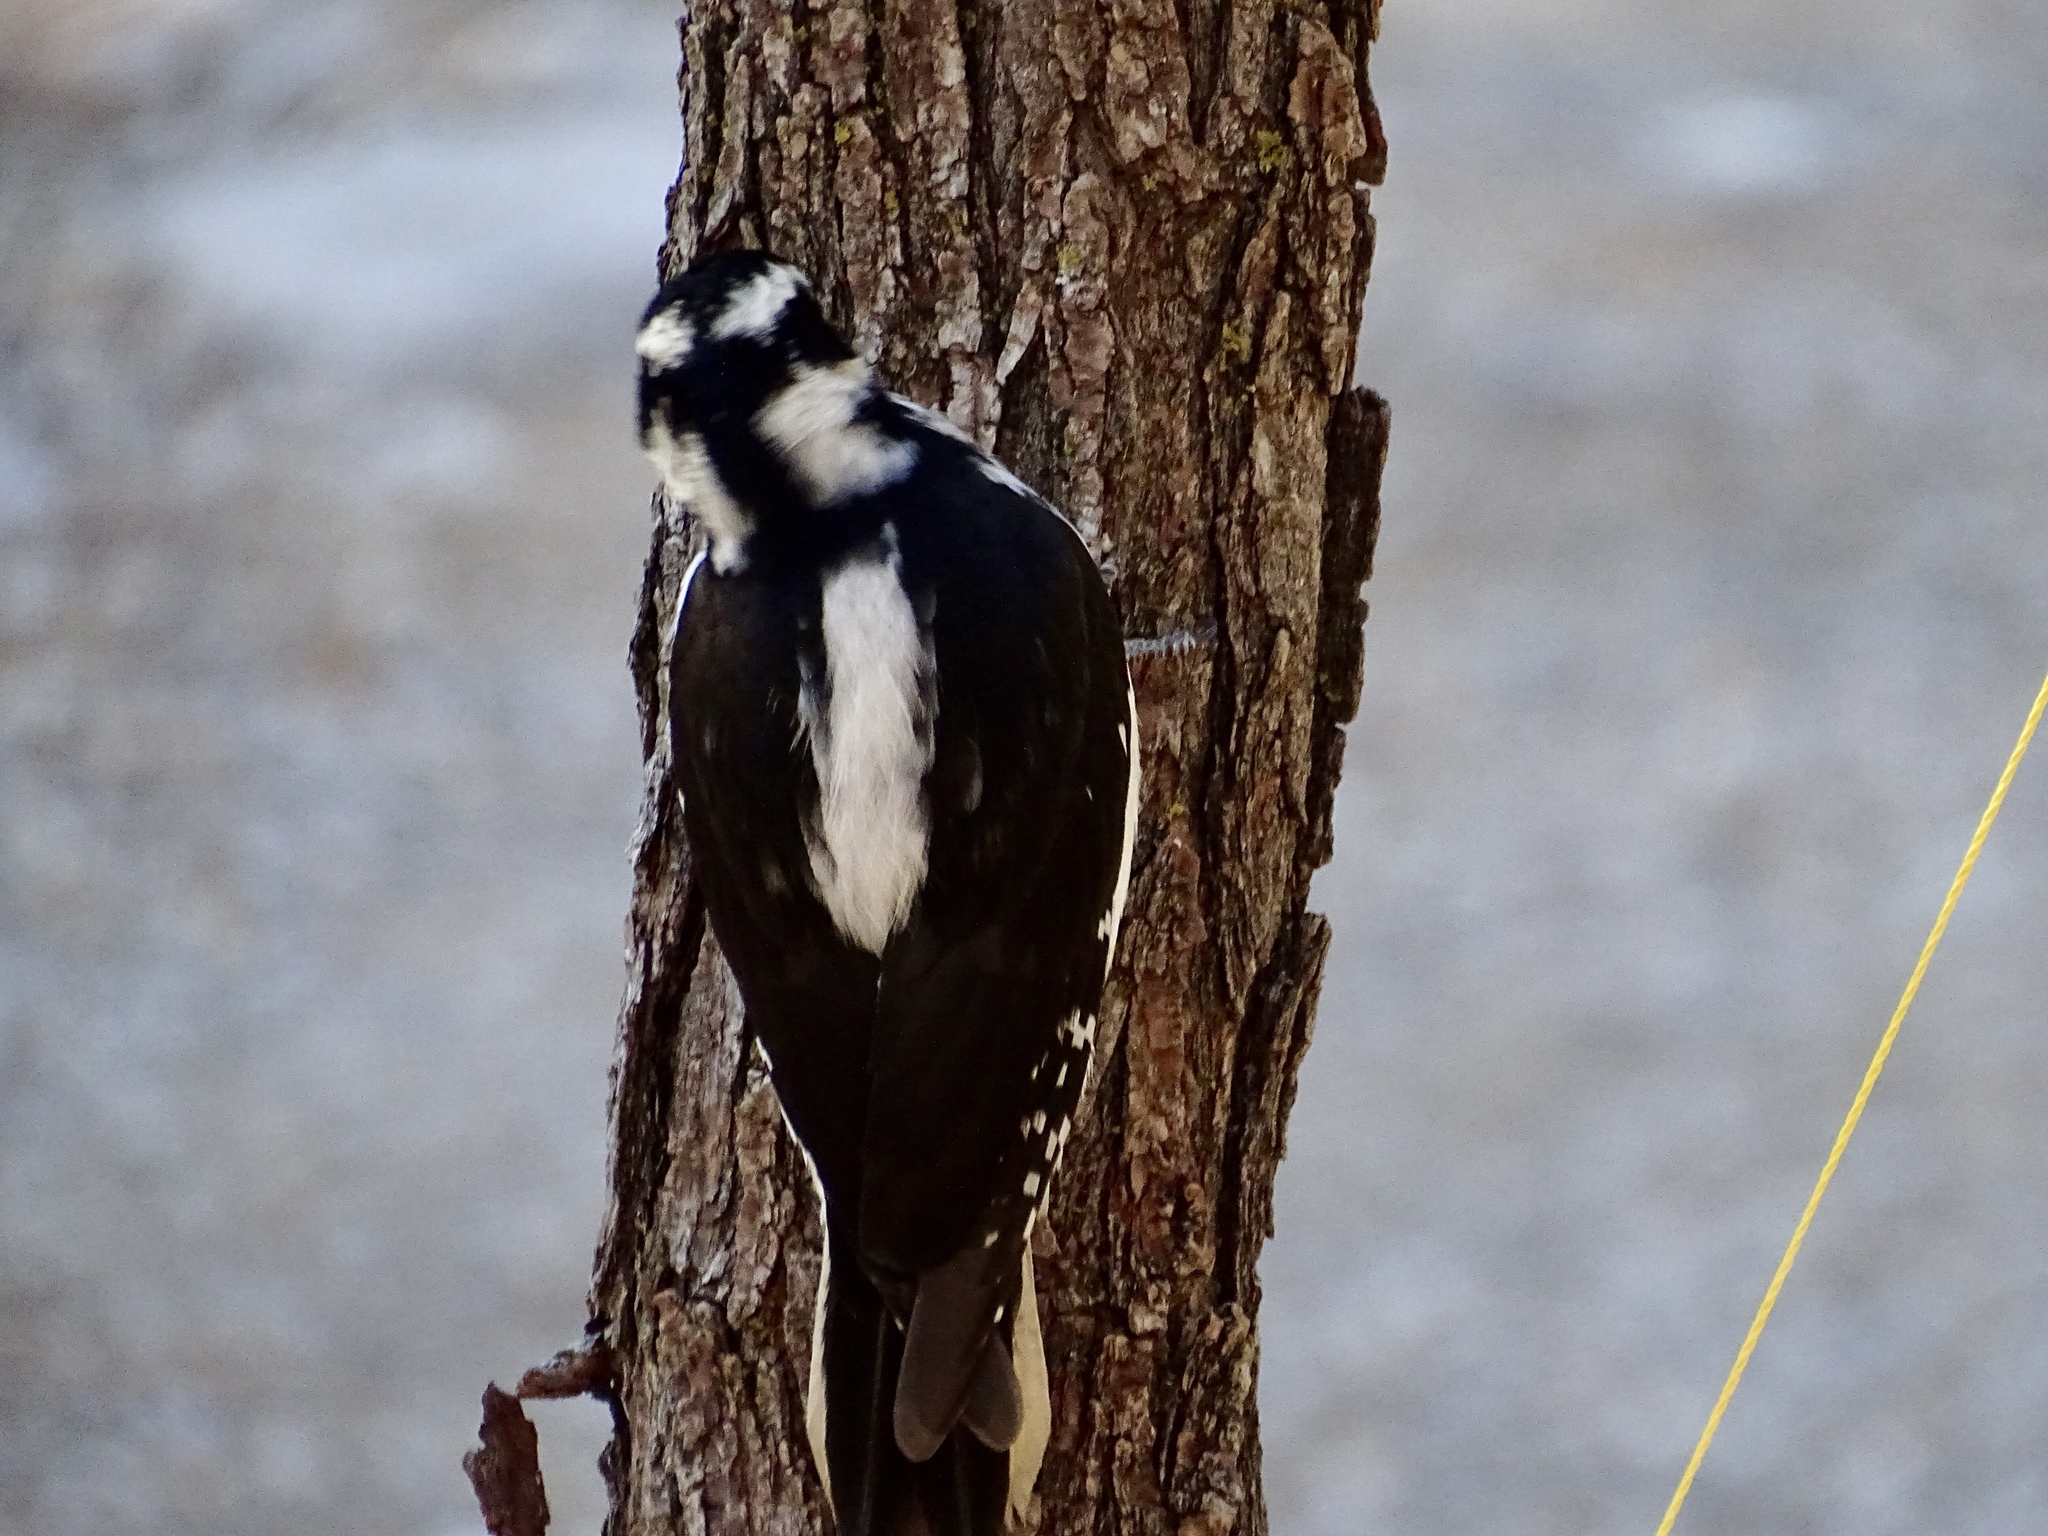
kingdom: Animalia
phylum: Chordata
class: Aves
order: Piciformes
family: Picidae
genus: Leuconotopicus
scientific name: Leuconotopicus villosus
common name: Hairy woodpecker
